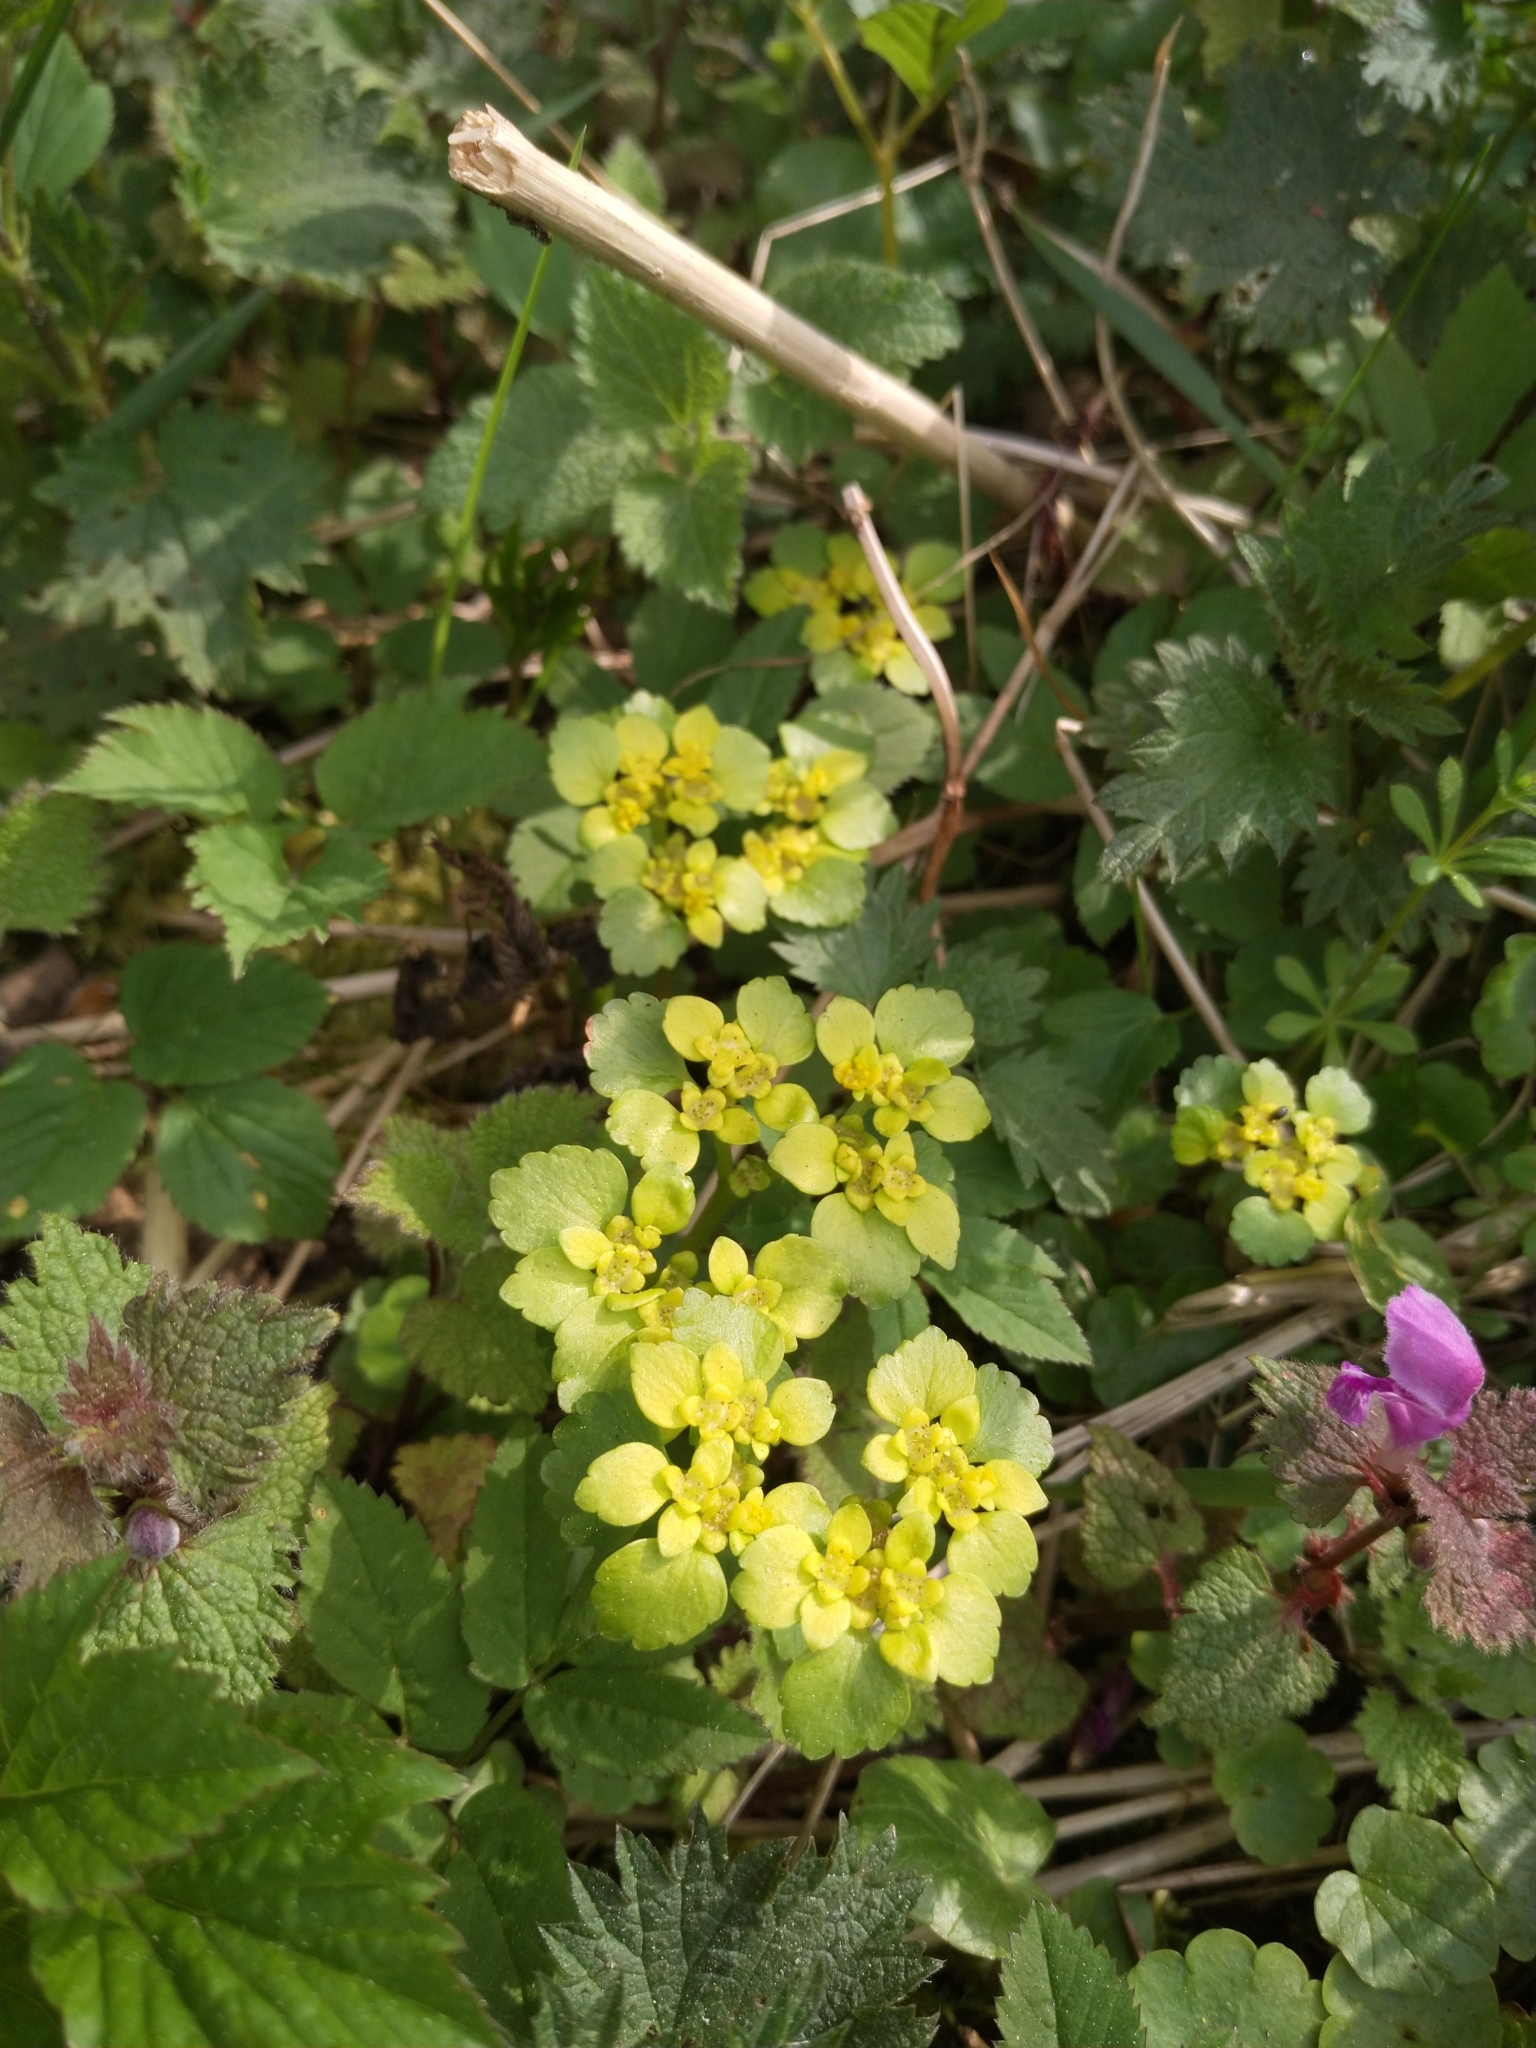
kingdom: Plantae
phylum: Tracheophyta
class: Magnoliopsida
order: Saxifragales
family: Saxifragaceae
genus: Chrysosplenium
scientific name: Chrysosplenium alternifolium
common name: Alternate-leaved golden-saxifrage
